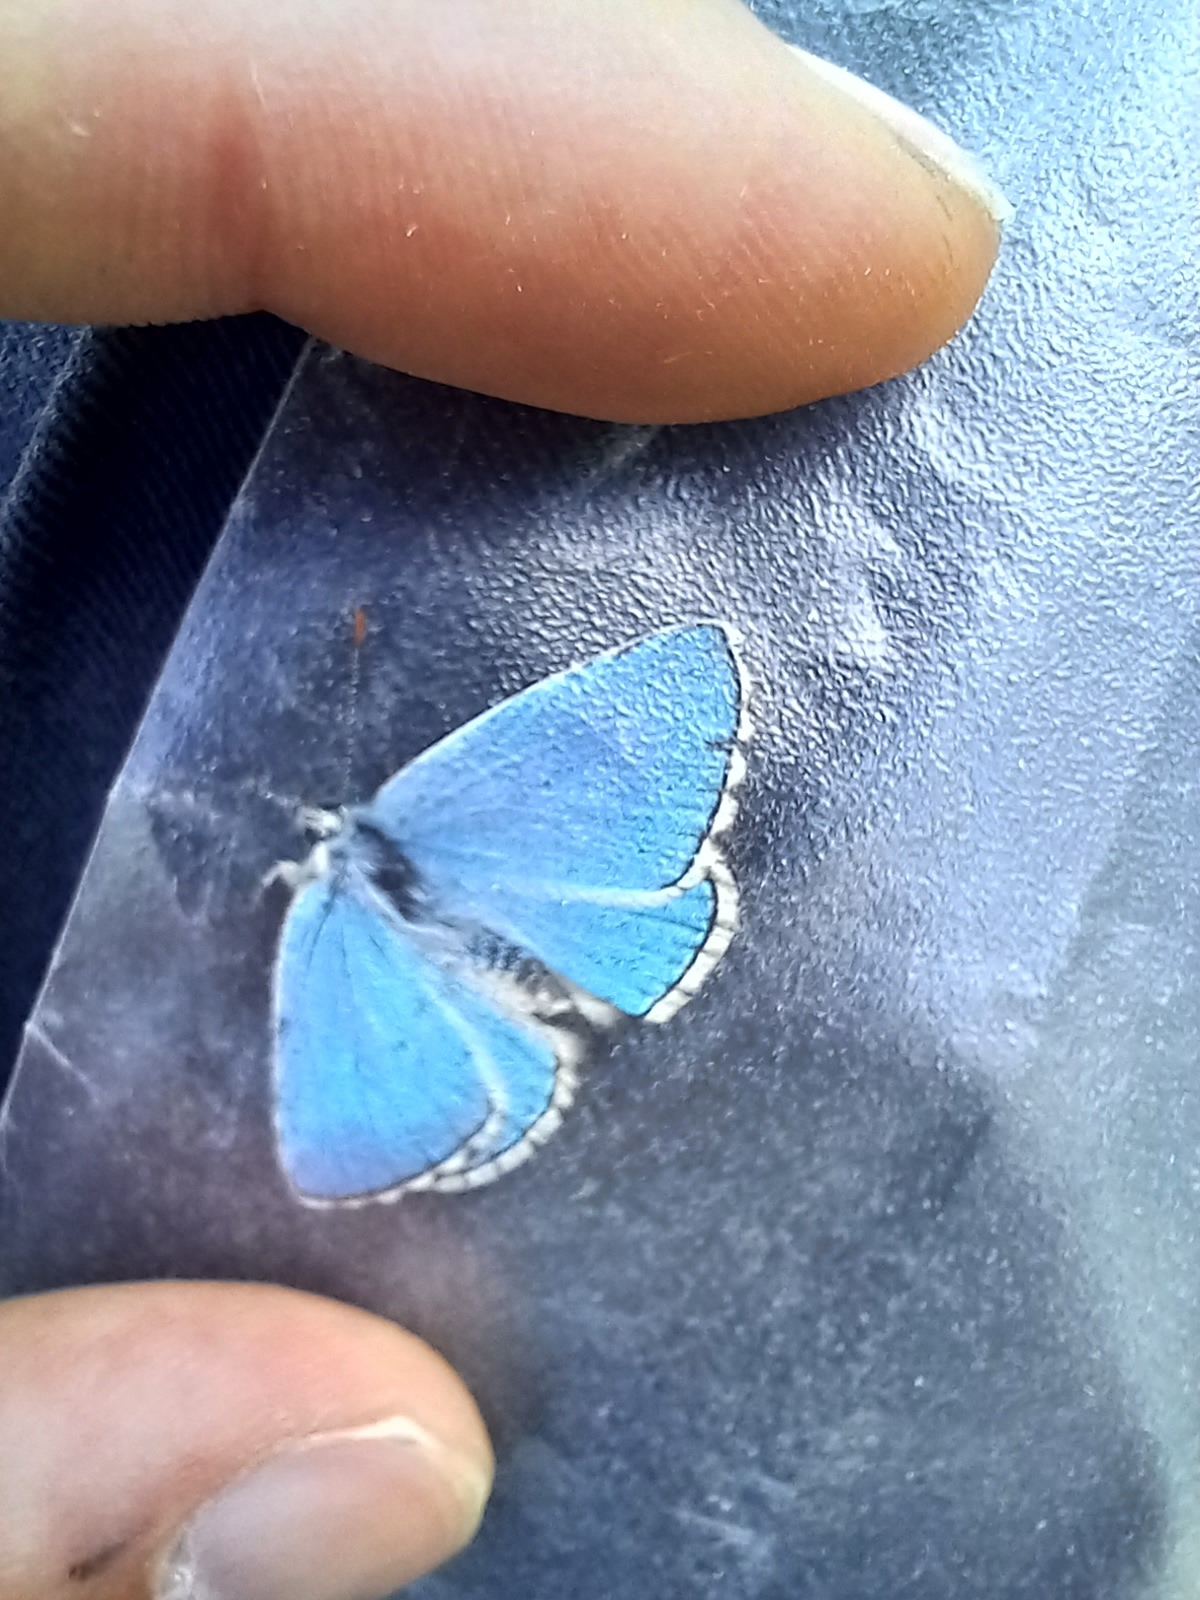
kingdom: Animalia
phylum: Arthropoda
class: Insecta
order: Lepidoptera
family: Lycaenidae
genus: Lysandra
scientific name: Lysandra bellargus
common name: Adonis blue
